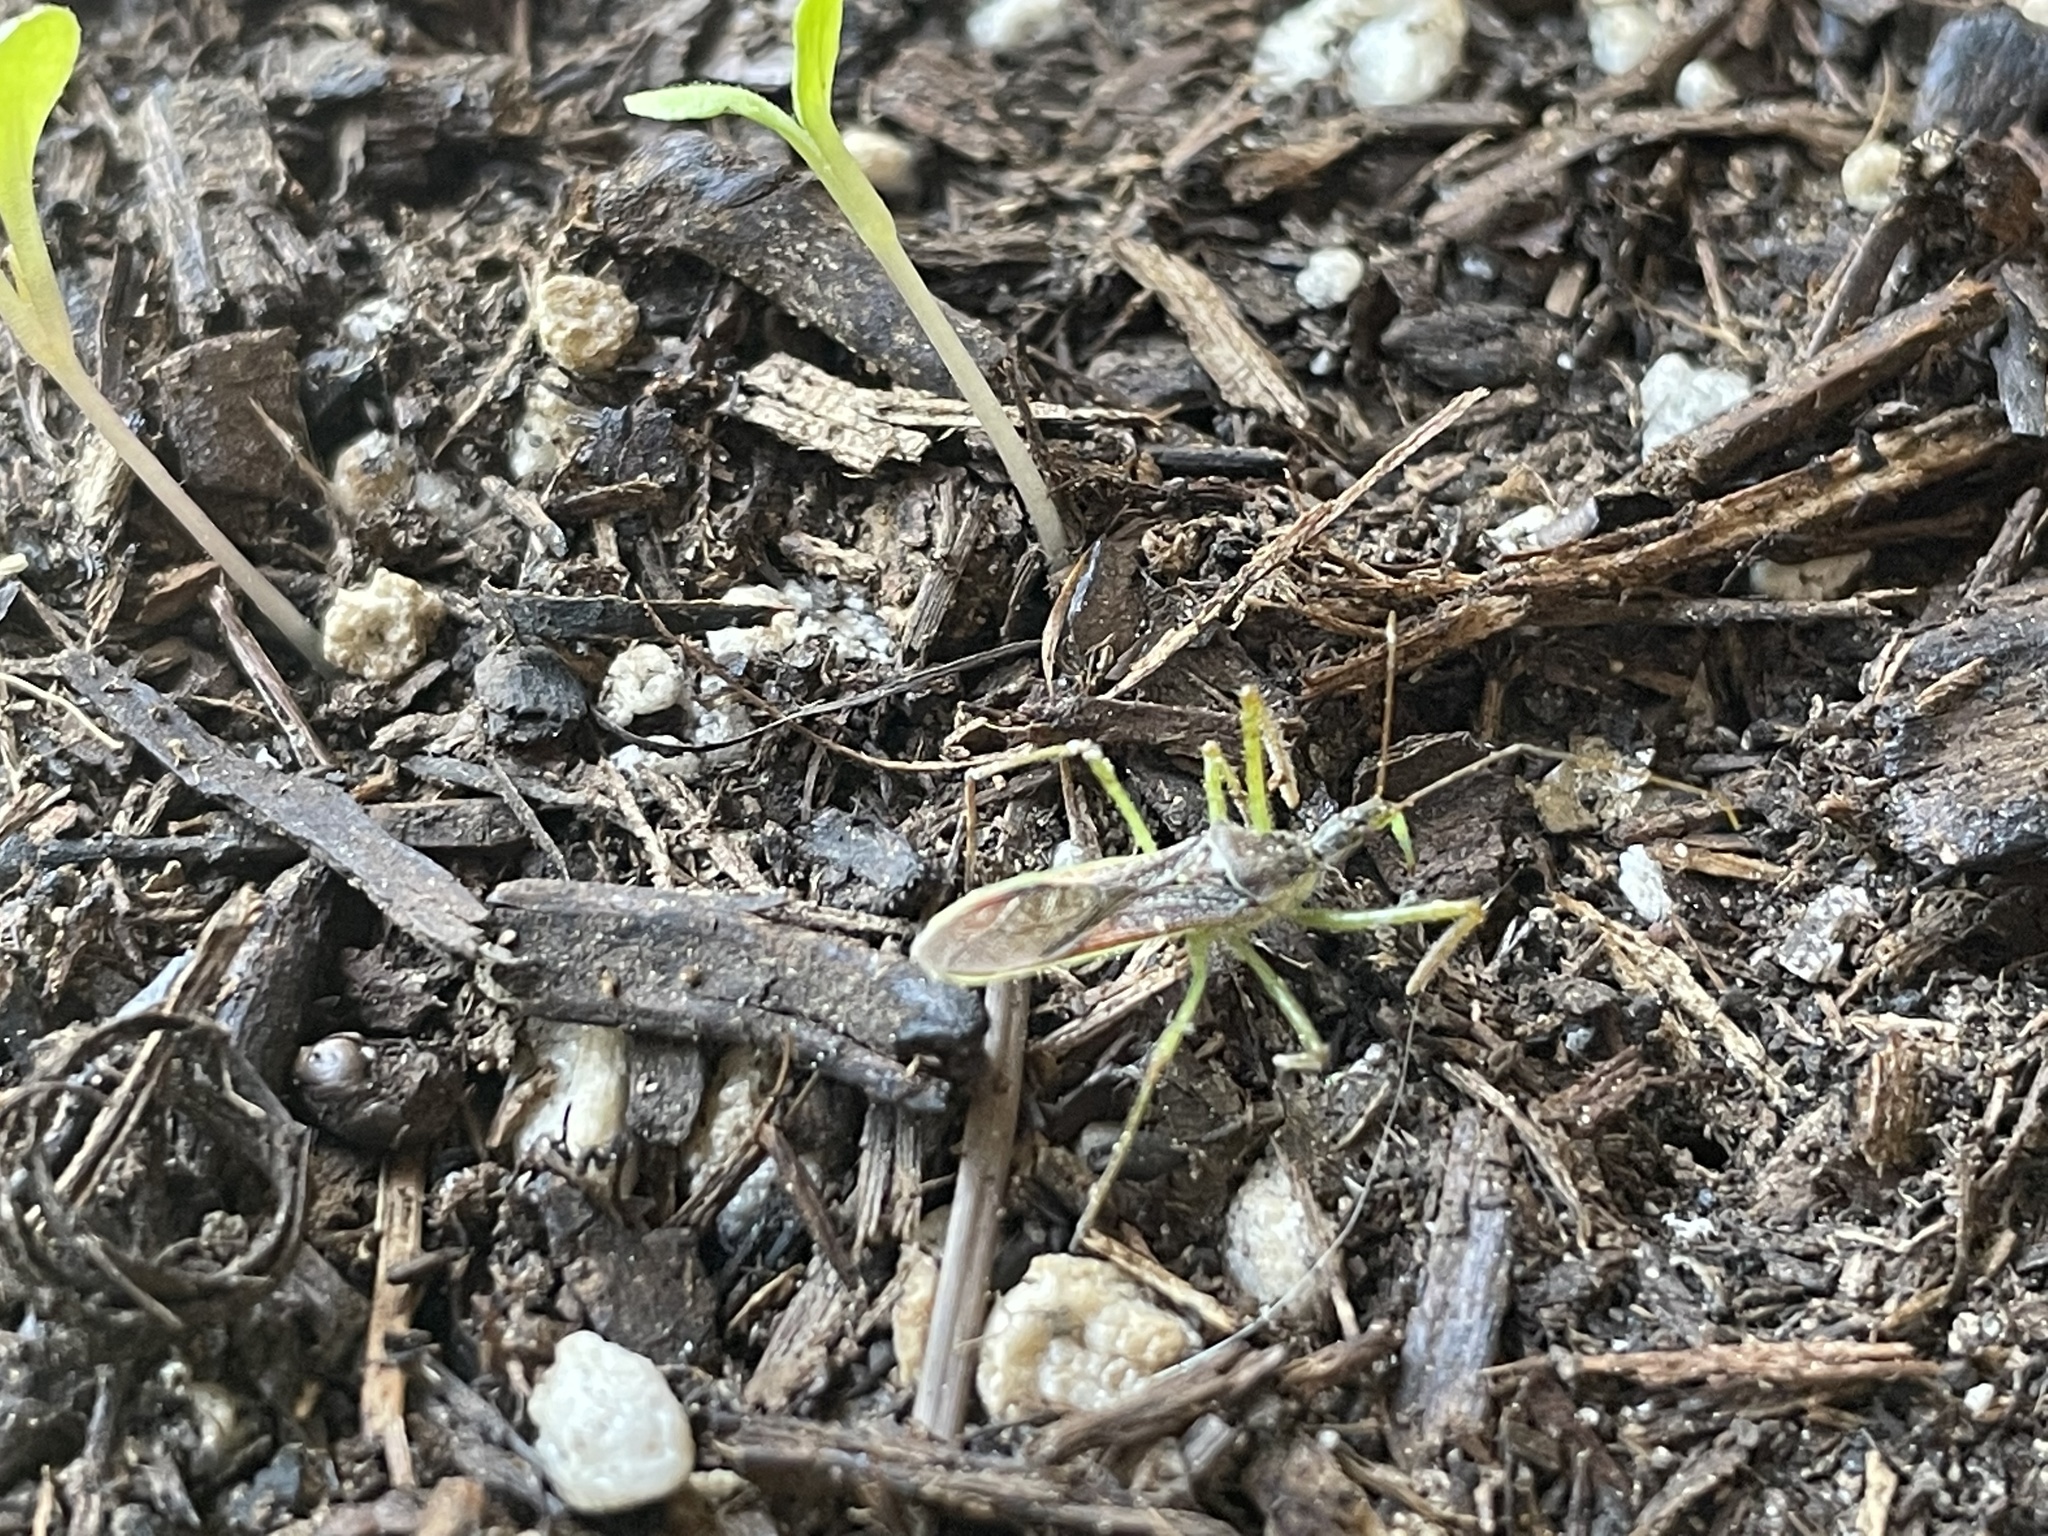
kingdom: Animalia
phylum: Arthropoda
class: Insecta
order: Hemiptera
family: Reduviidae
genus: Zelus
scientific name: Zelus renardii
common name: Assassin bug
